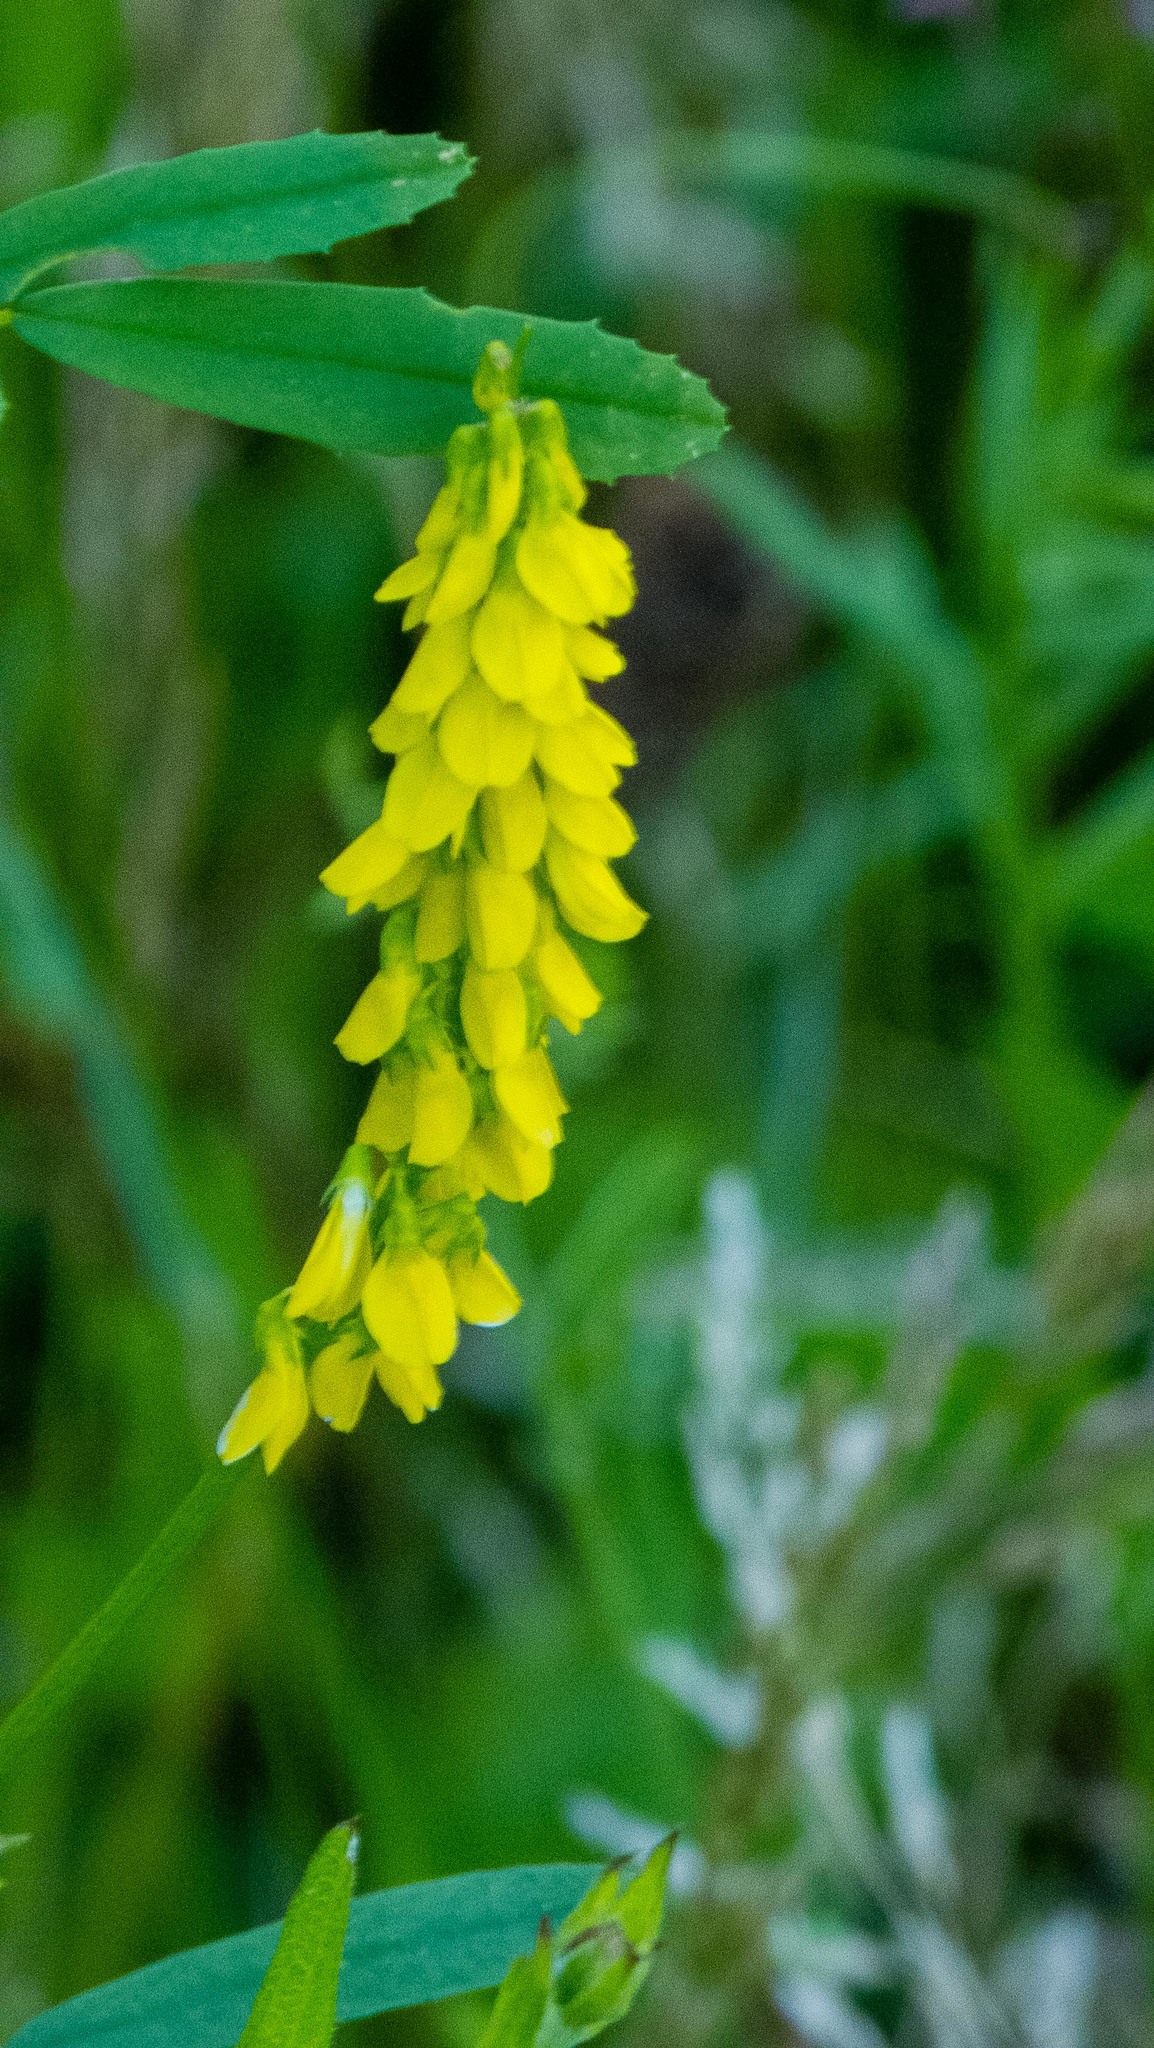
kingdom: Plantae
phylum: Tracheophyta
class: Magnoliopsida
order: Fabales
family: Fabaceae
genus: Melilotus
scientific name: Melilotus officinalis
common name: Sweetclover
